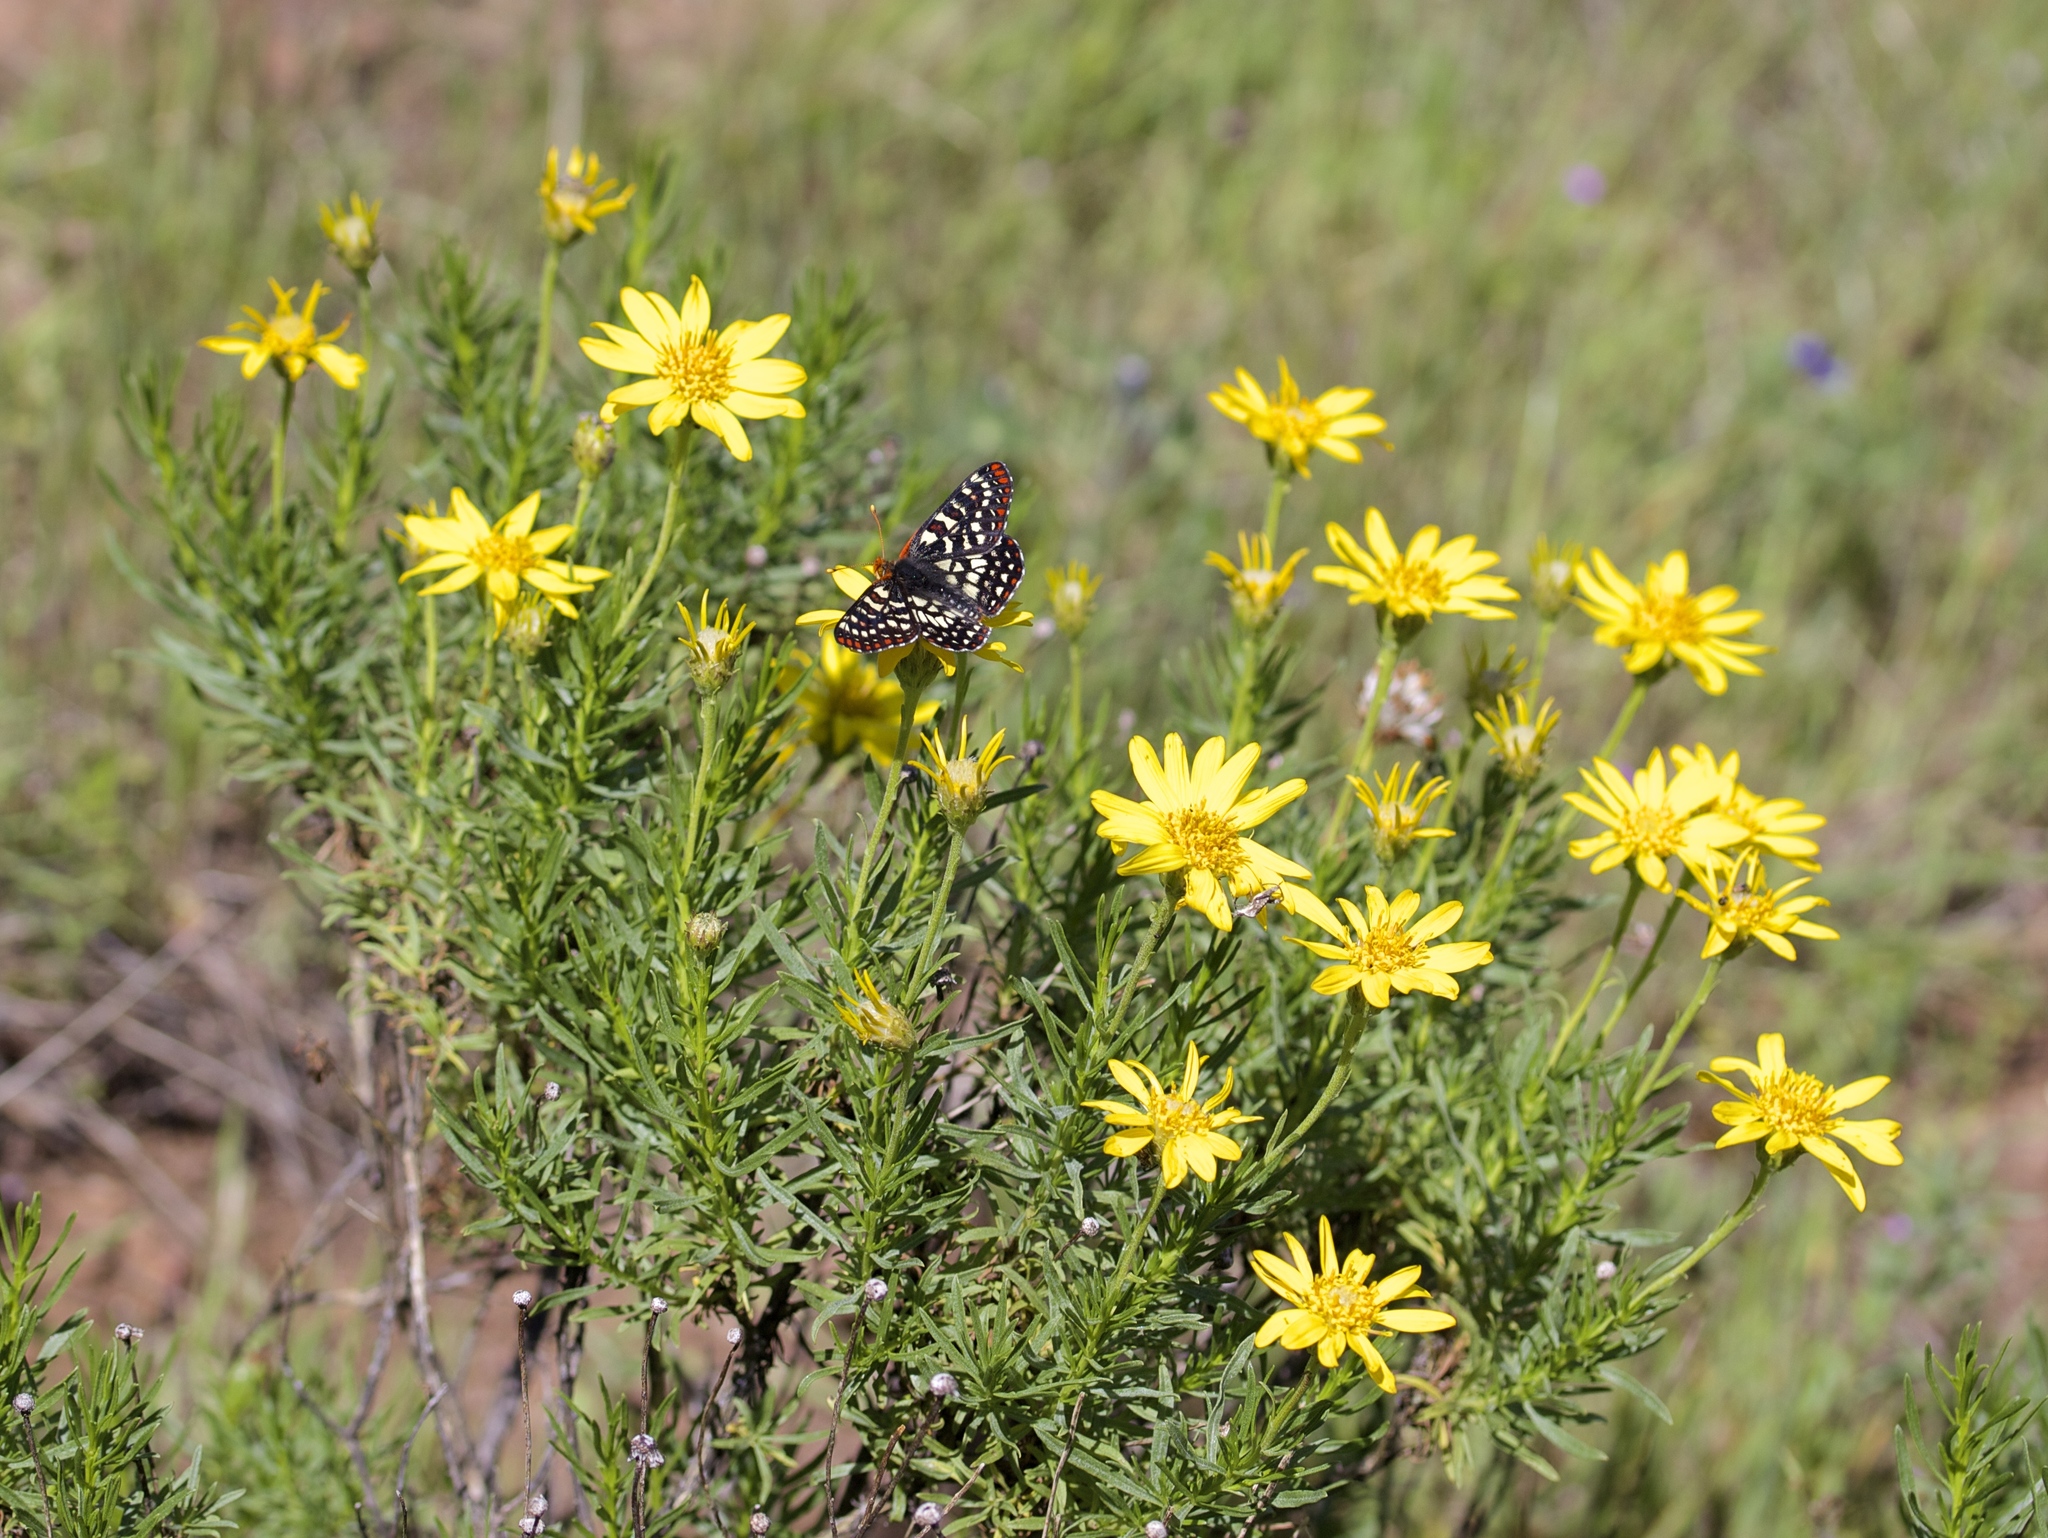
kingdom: Plantae
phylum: Tracheophyta
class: Magnoliopsida
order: Asterales
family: Asteraceae
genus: Ericameria
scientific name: Ericameria linearifolia
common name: Interior goldenbush
